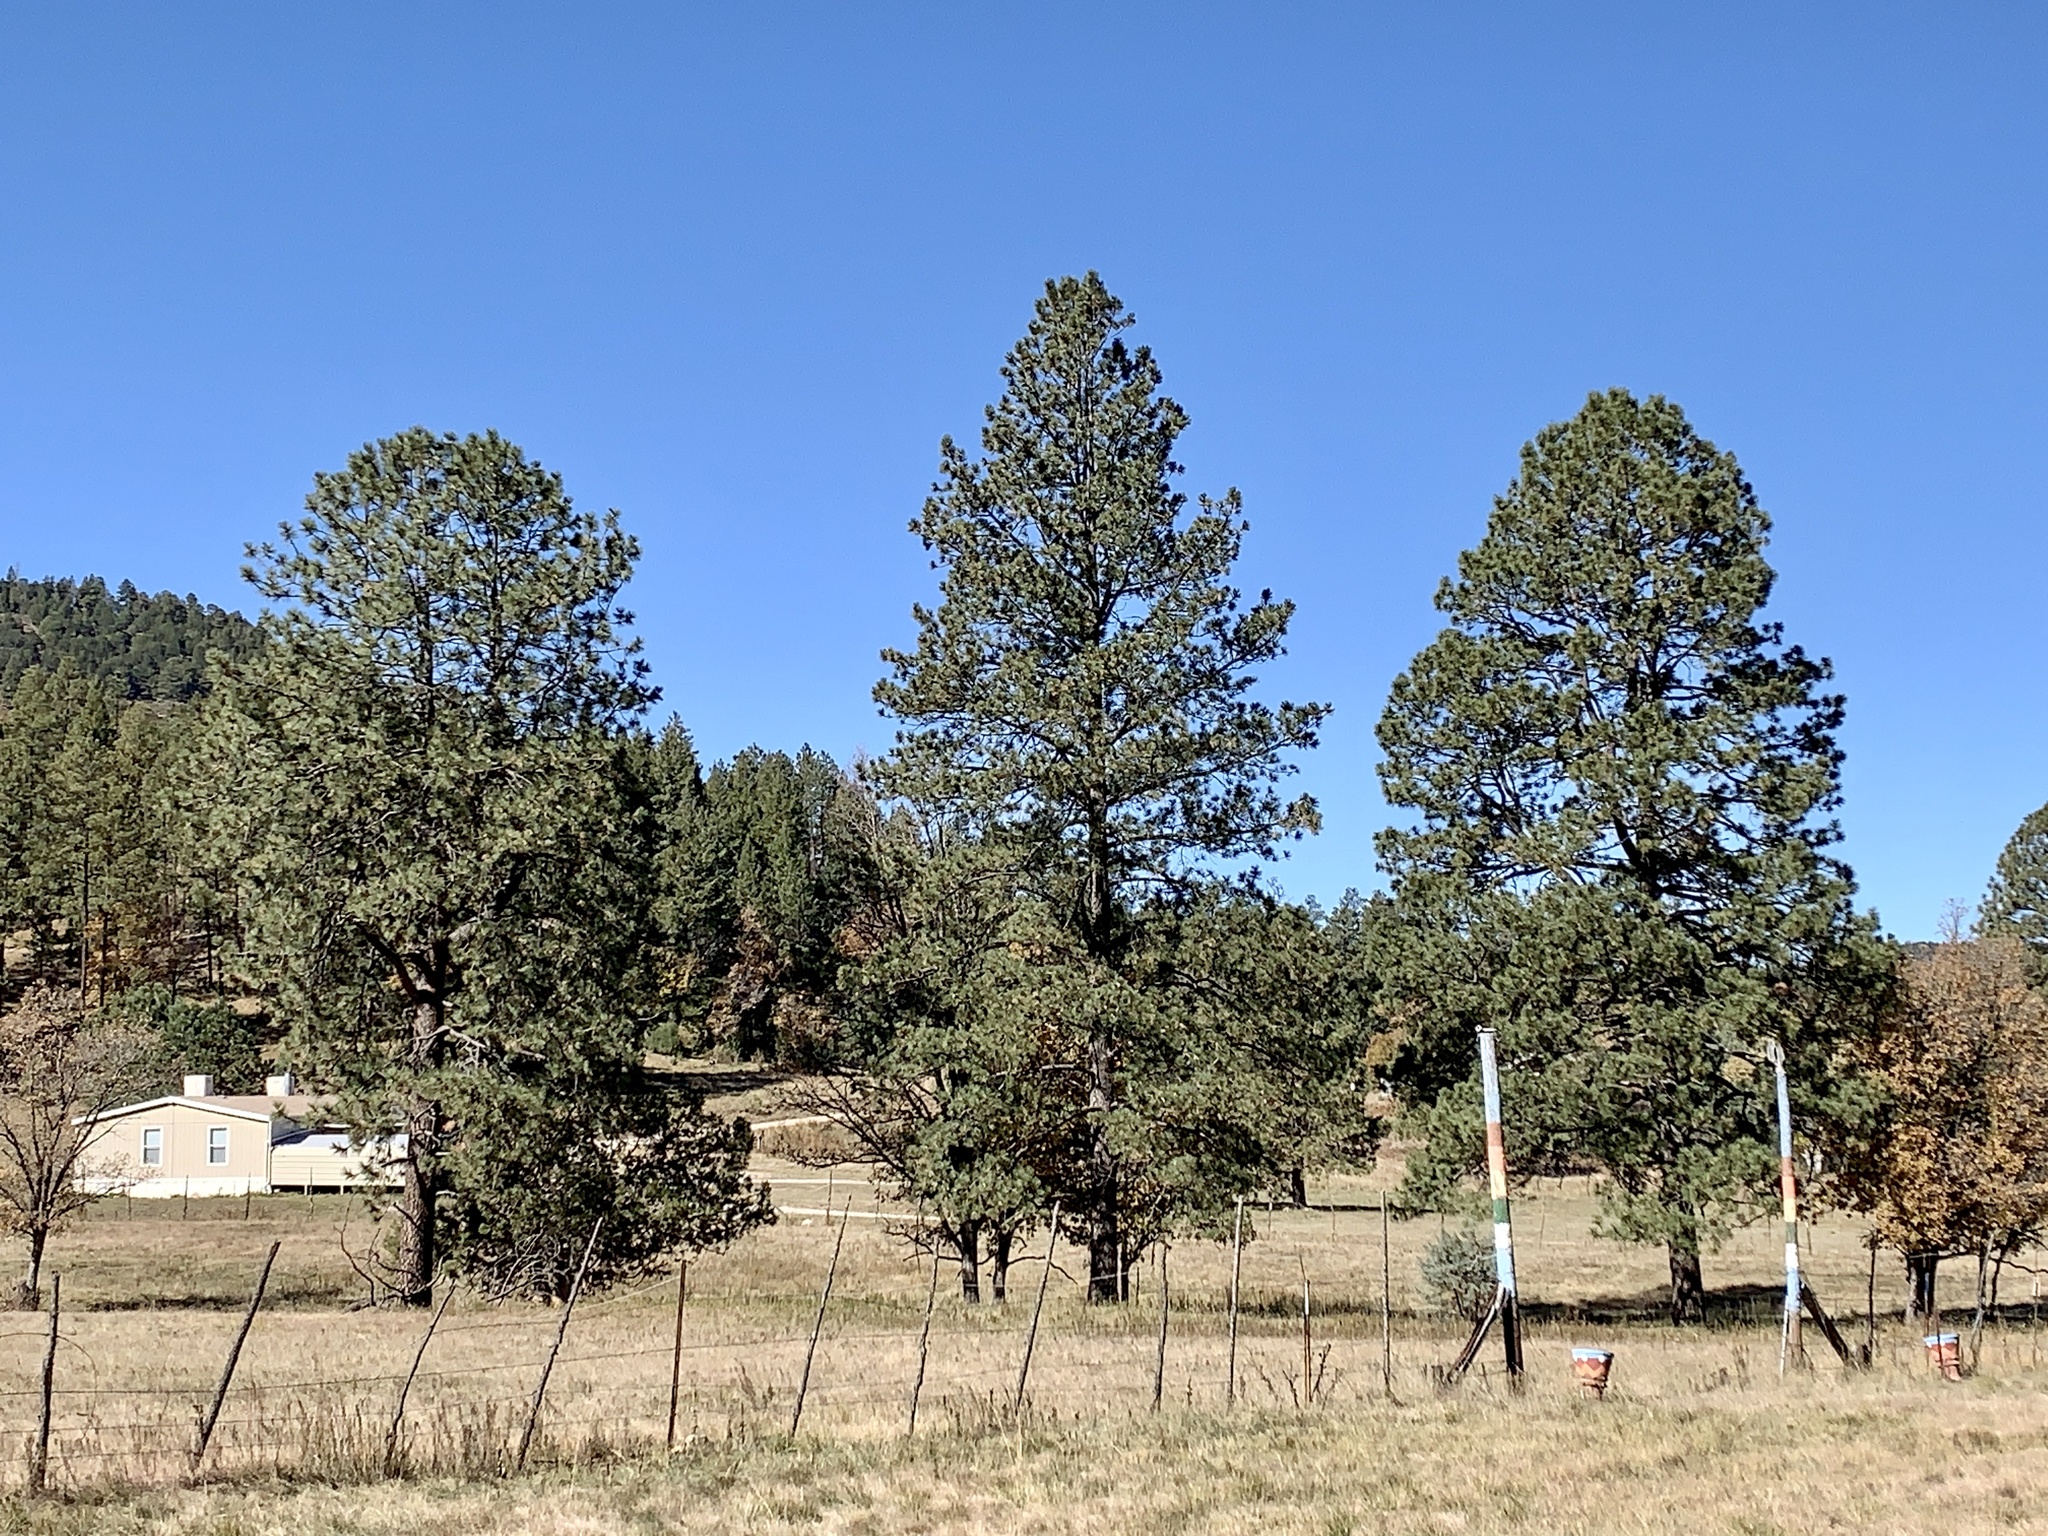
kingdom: Plantae
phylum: Tracheophyta
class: Pinopsida
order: Pinales
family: Pinaceae
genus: Pinus
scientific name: Pinus ponderosa
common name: Western yellow-pine
